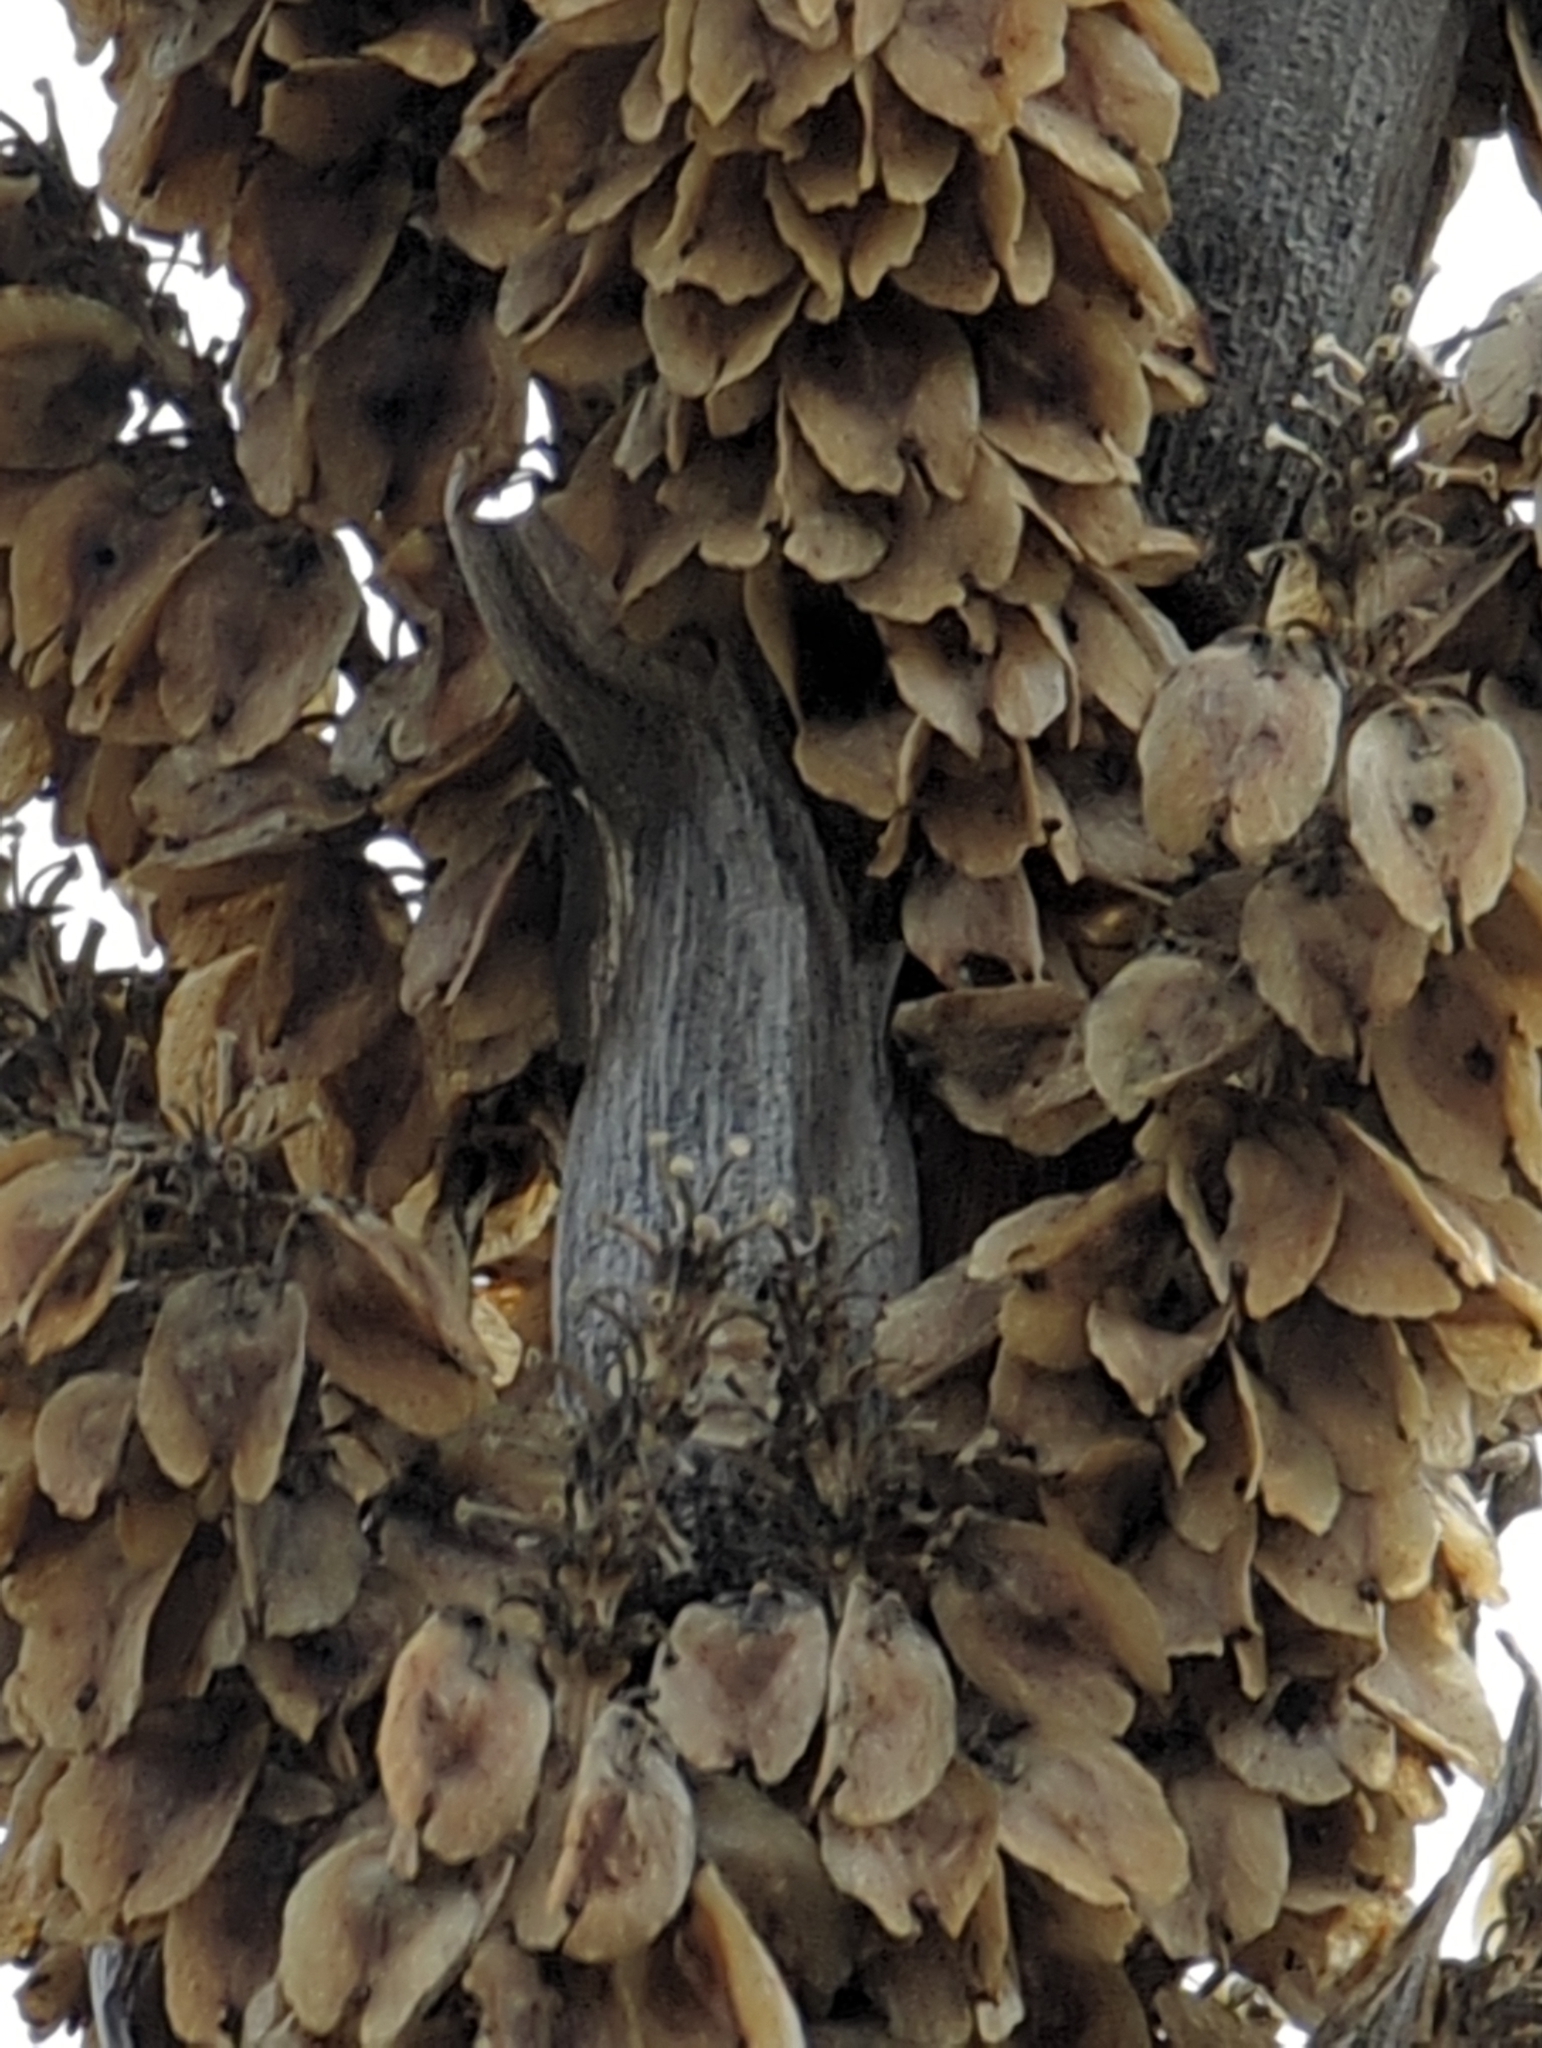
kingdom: Plantae
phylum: Tracheophyta
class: Liliopsida
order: Asparagales
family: Asparagaceae
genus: Dasylirion
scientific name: Dasylirion wheeleri
